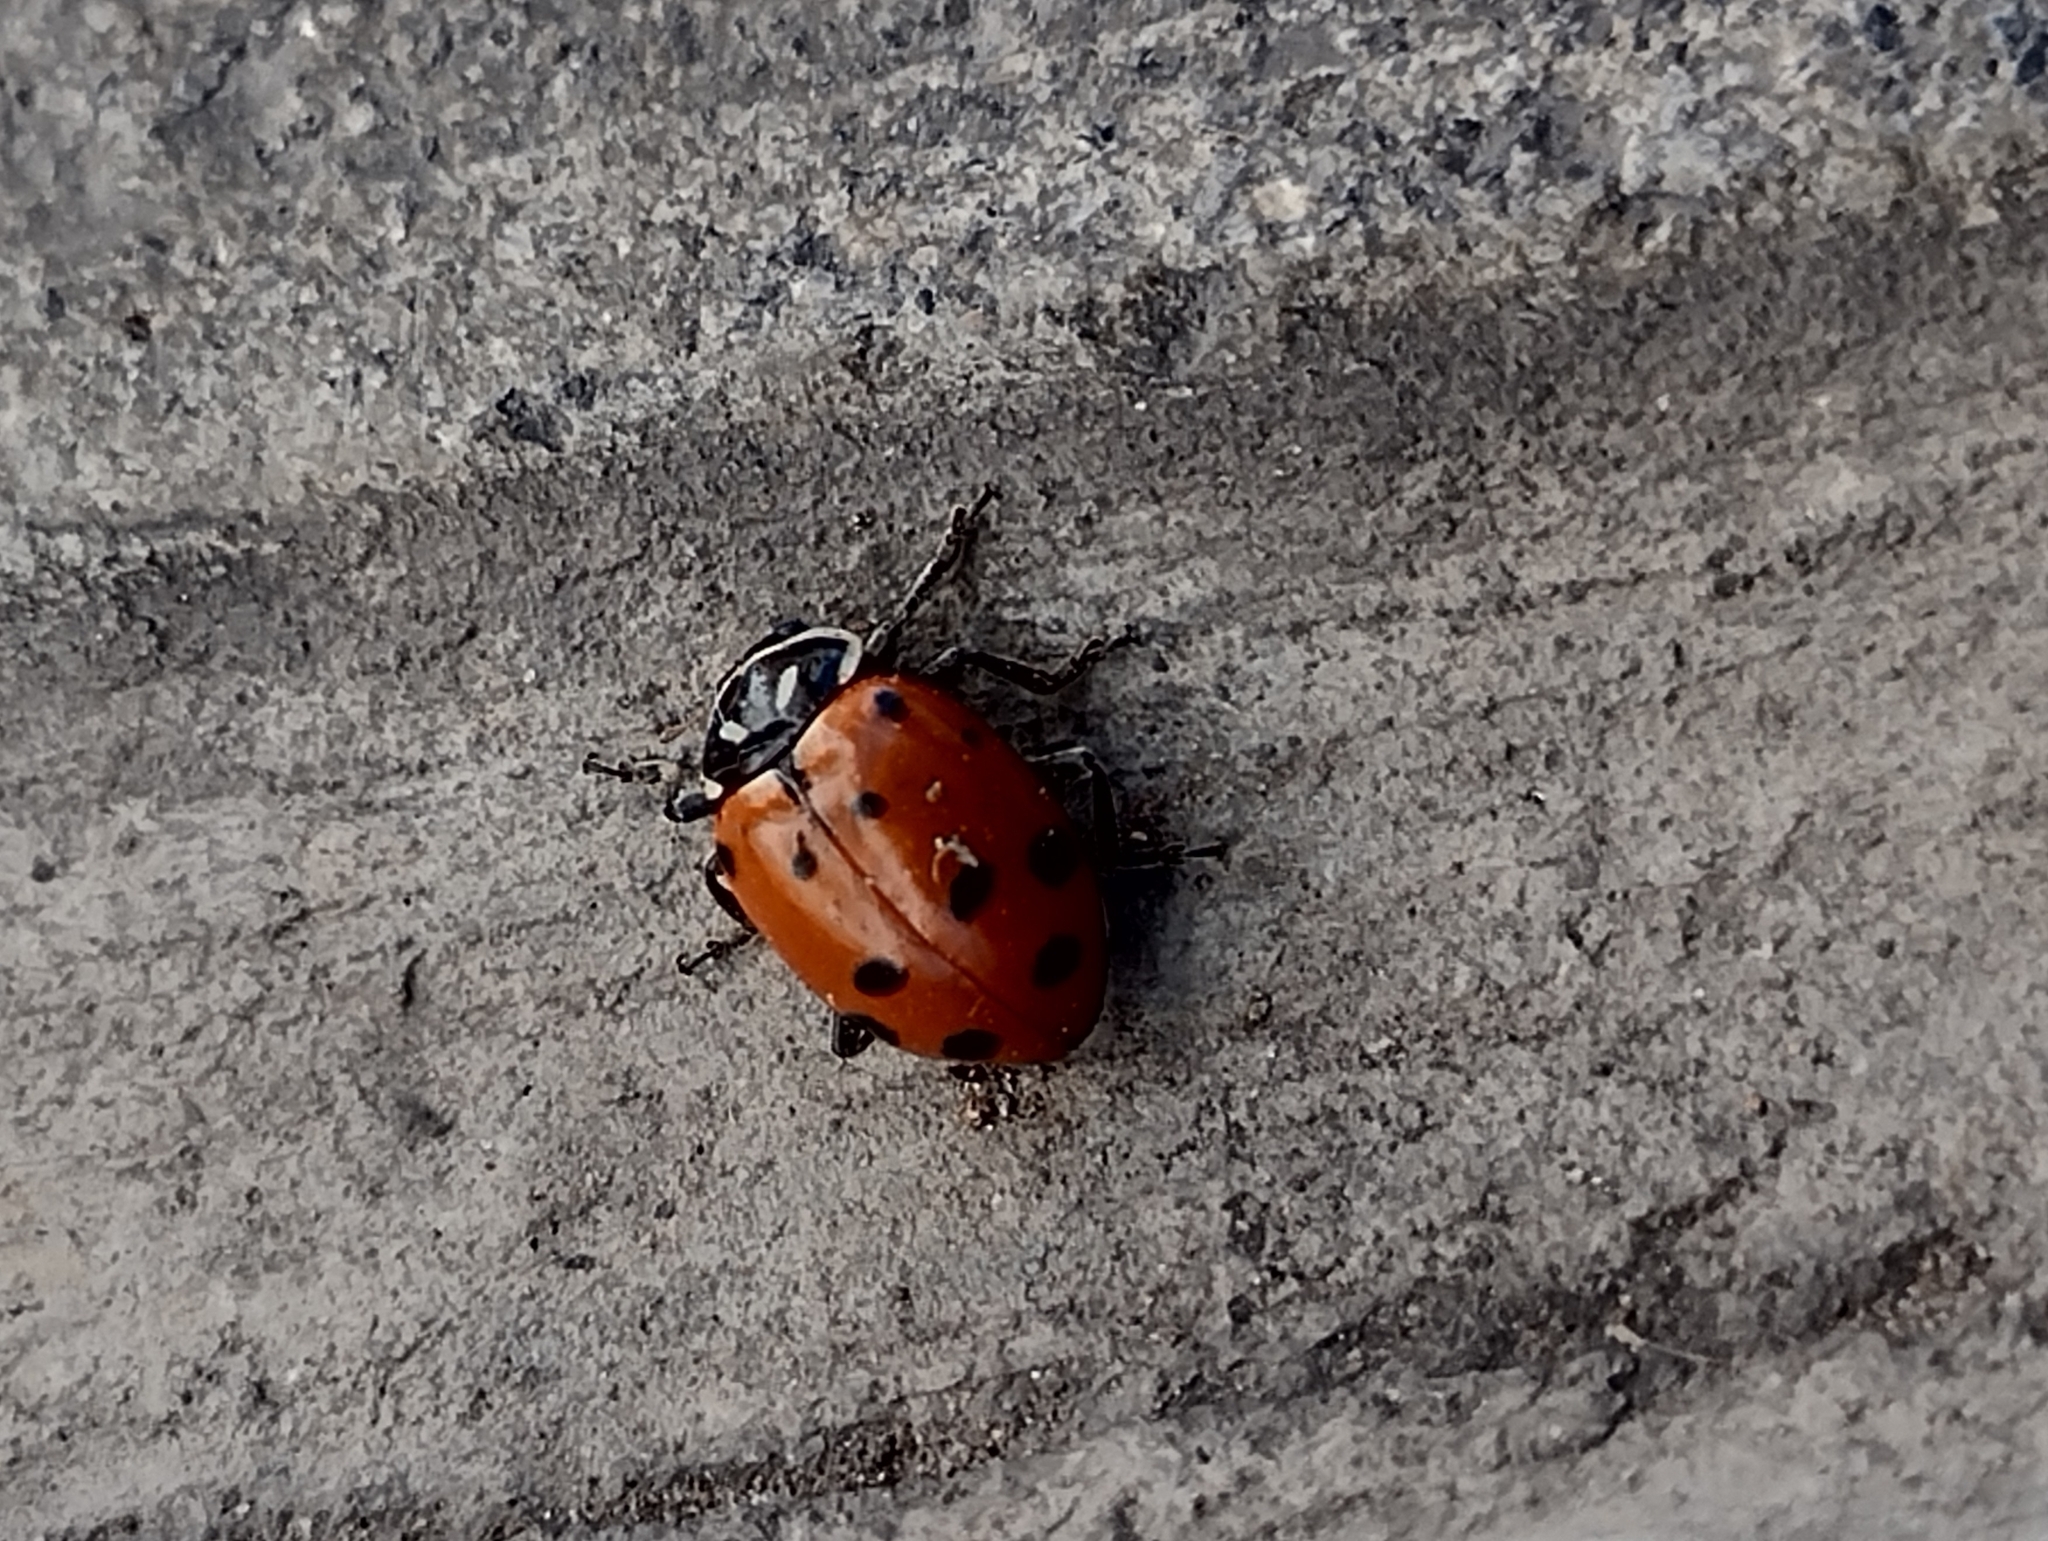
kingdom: Animalia
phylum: Arthropoda
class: Insecta
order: Coleoptera
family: Coccinellidae
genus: Hippodamia
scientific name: Hippodamia convergens
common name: Convergent lady beetle
